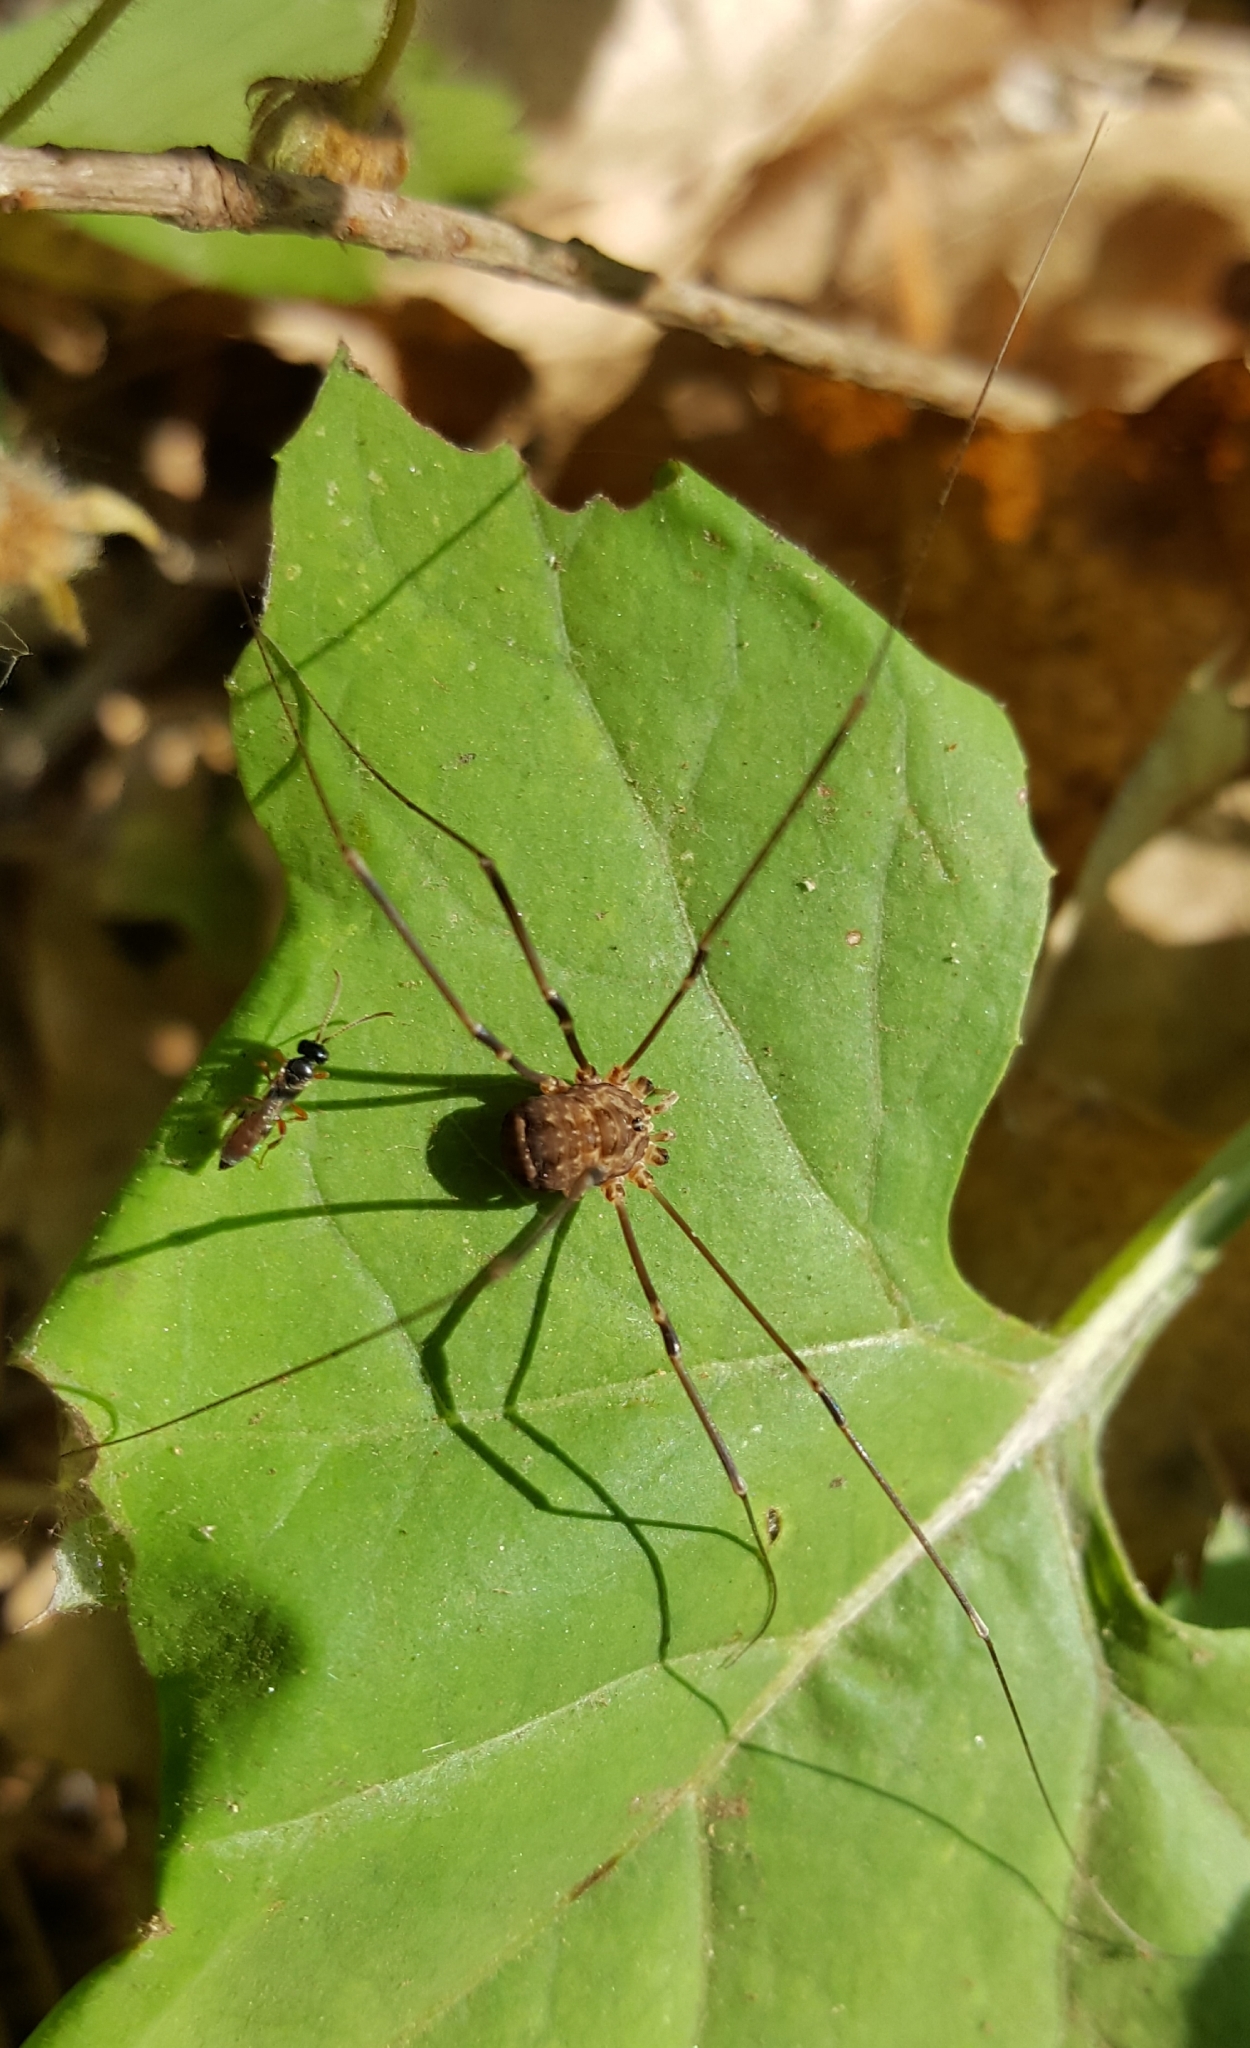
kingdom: Animalia
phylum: Arthropoda
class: Arachnida
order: Opiliones
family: Sclerosomatidae
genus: Nelima
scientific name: Nelima paessleri
